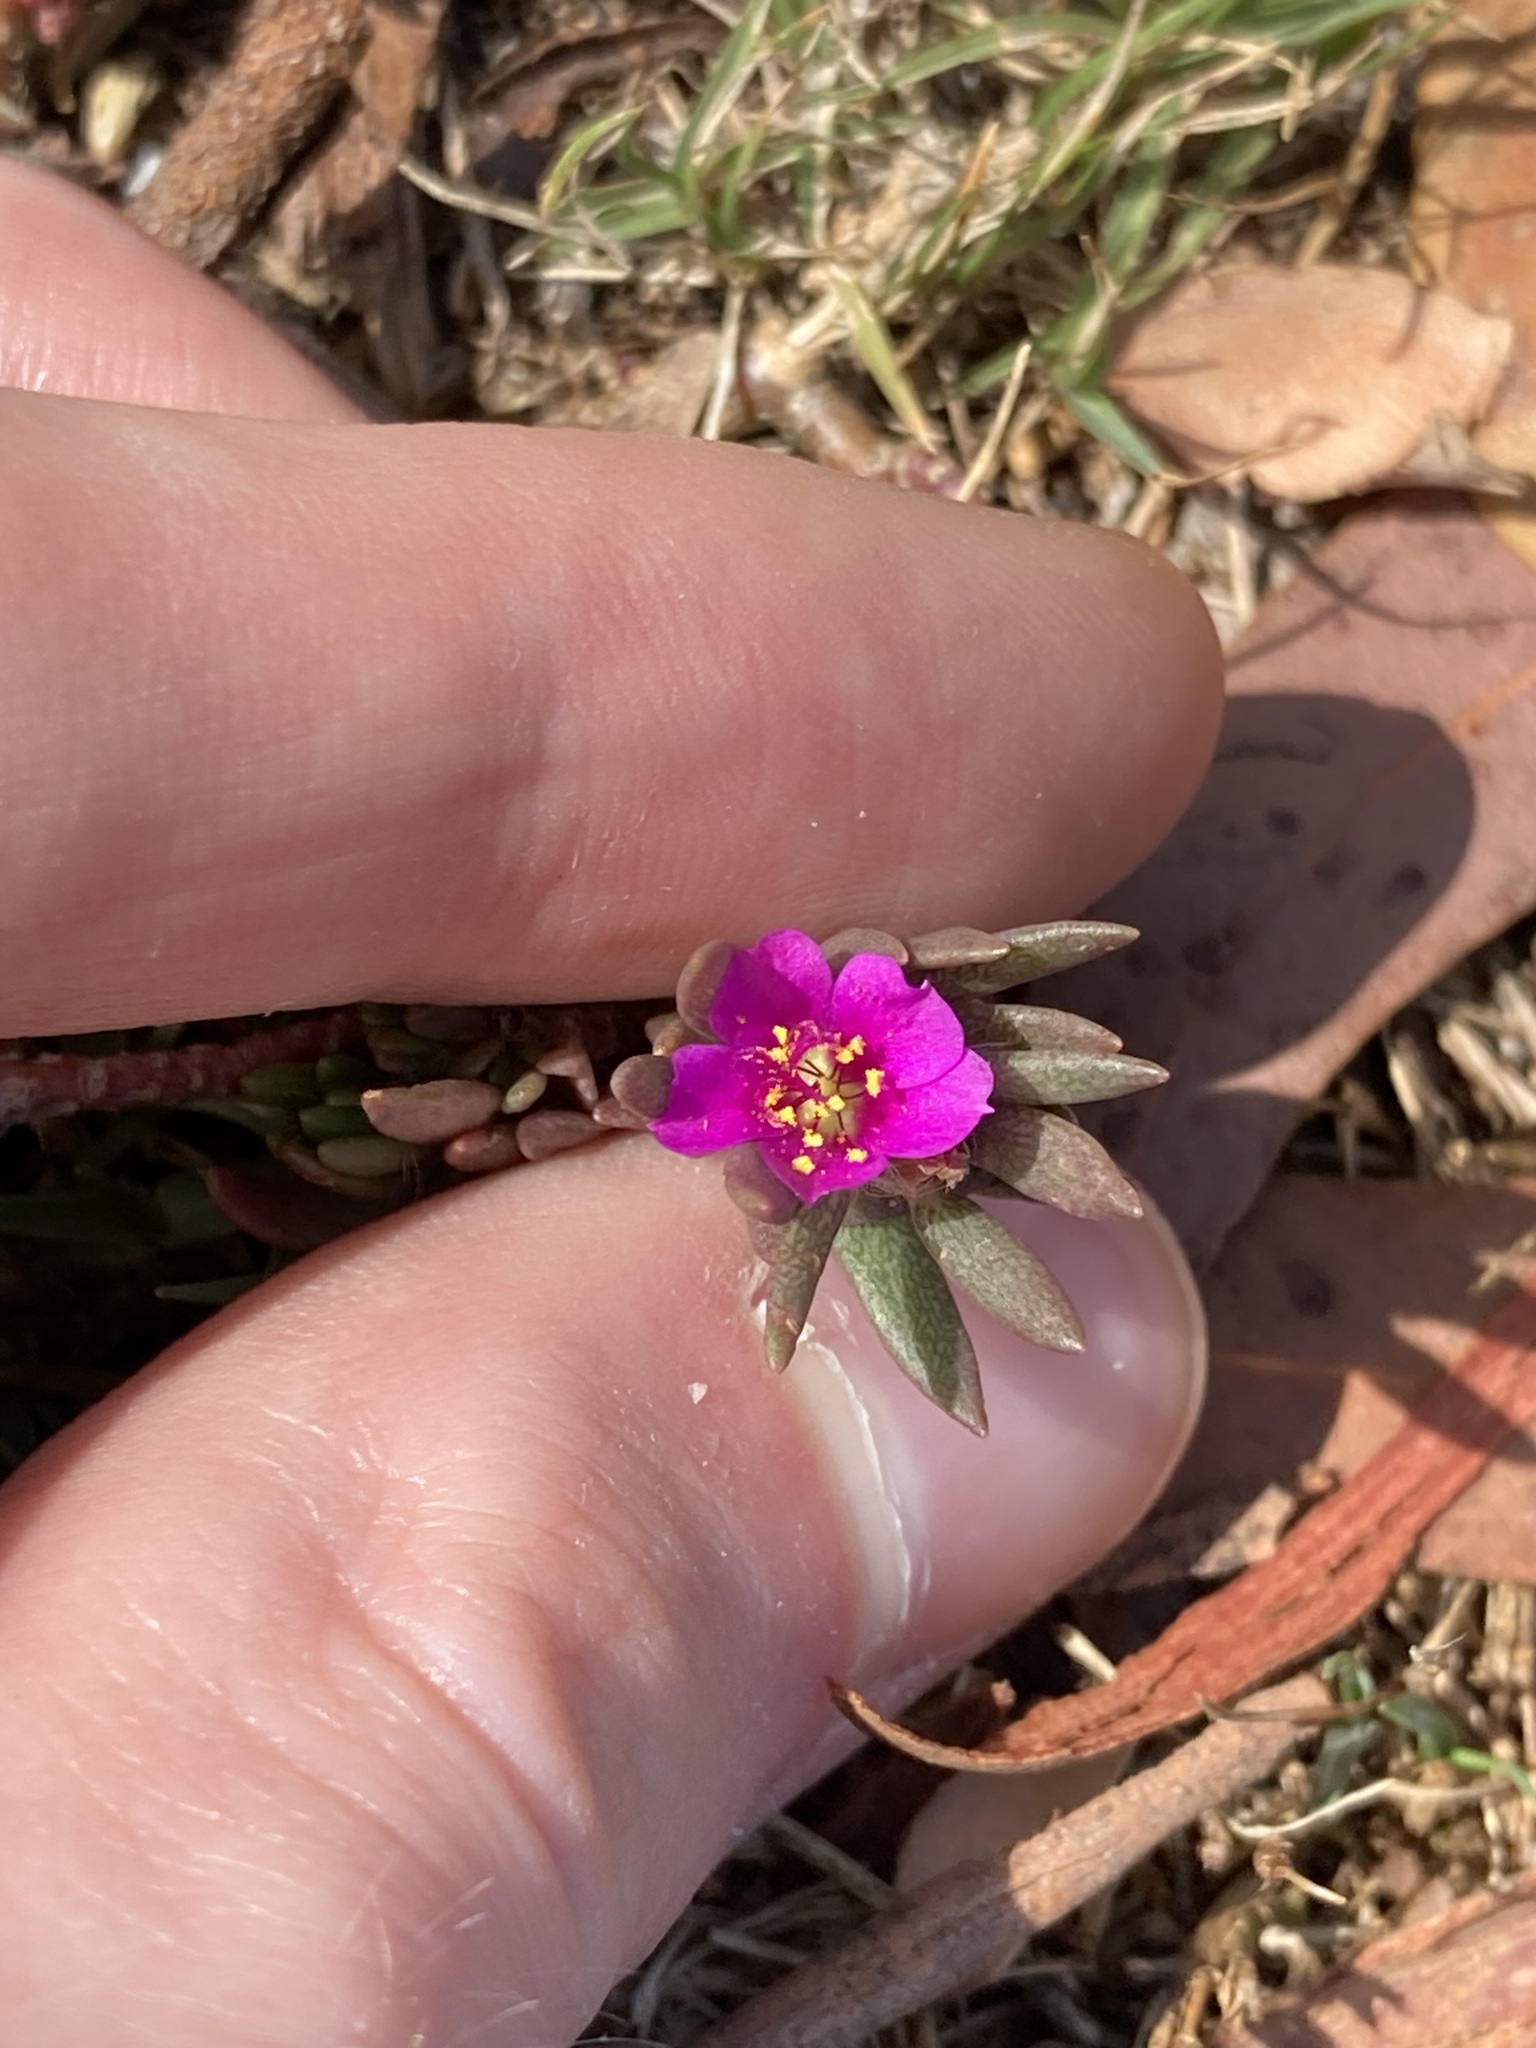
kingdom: Plantae
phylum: Tracheophyta
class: Magnoliopsida
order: Caryophyllales
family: Portulacaceae
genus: Portulaca
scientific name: Portulaca pilosa
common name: Kiss me quick
